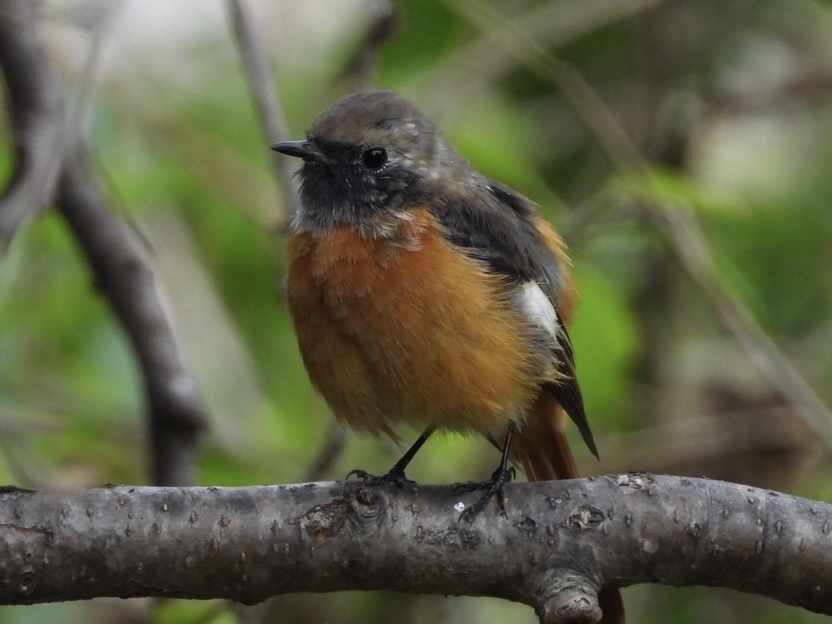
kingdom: Animalia
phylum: Chordata
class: Aves
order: Passeriformes
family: Muscicapidae
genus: Phoenicurus
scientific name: Phoenicurus auroreus
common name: Daurian redstart
